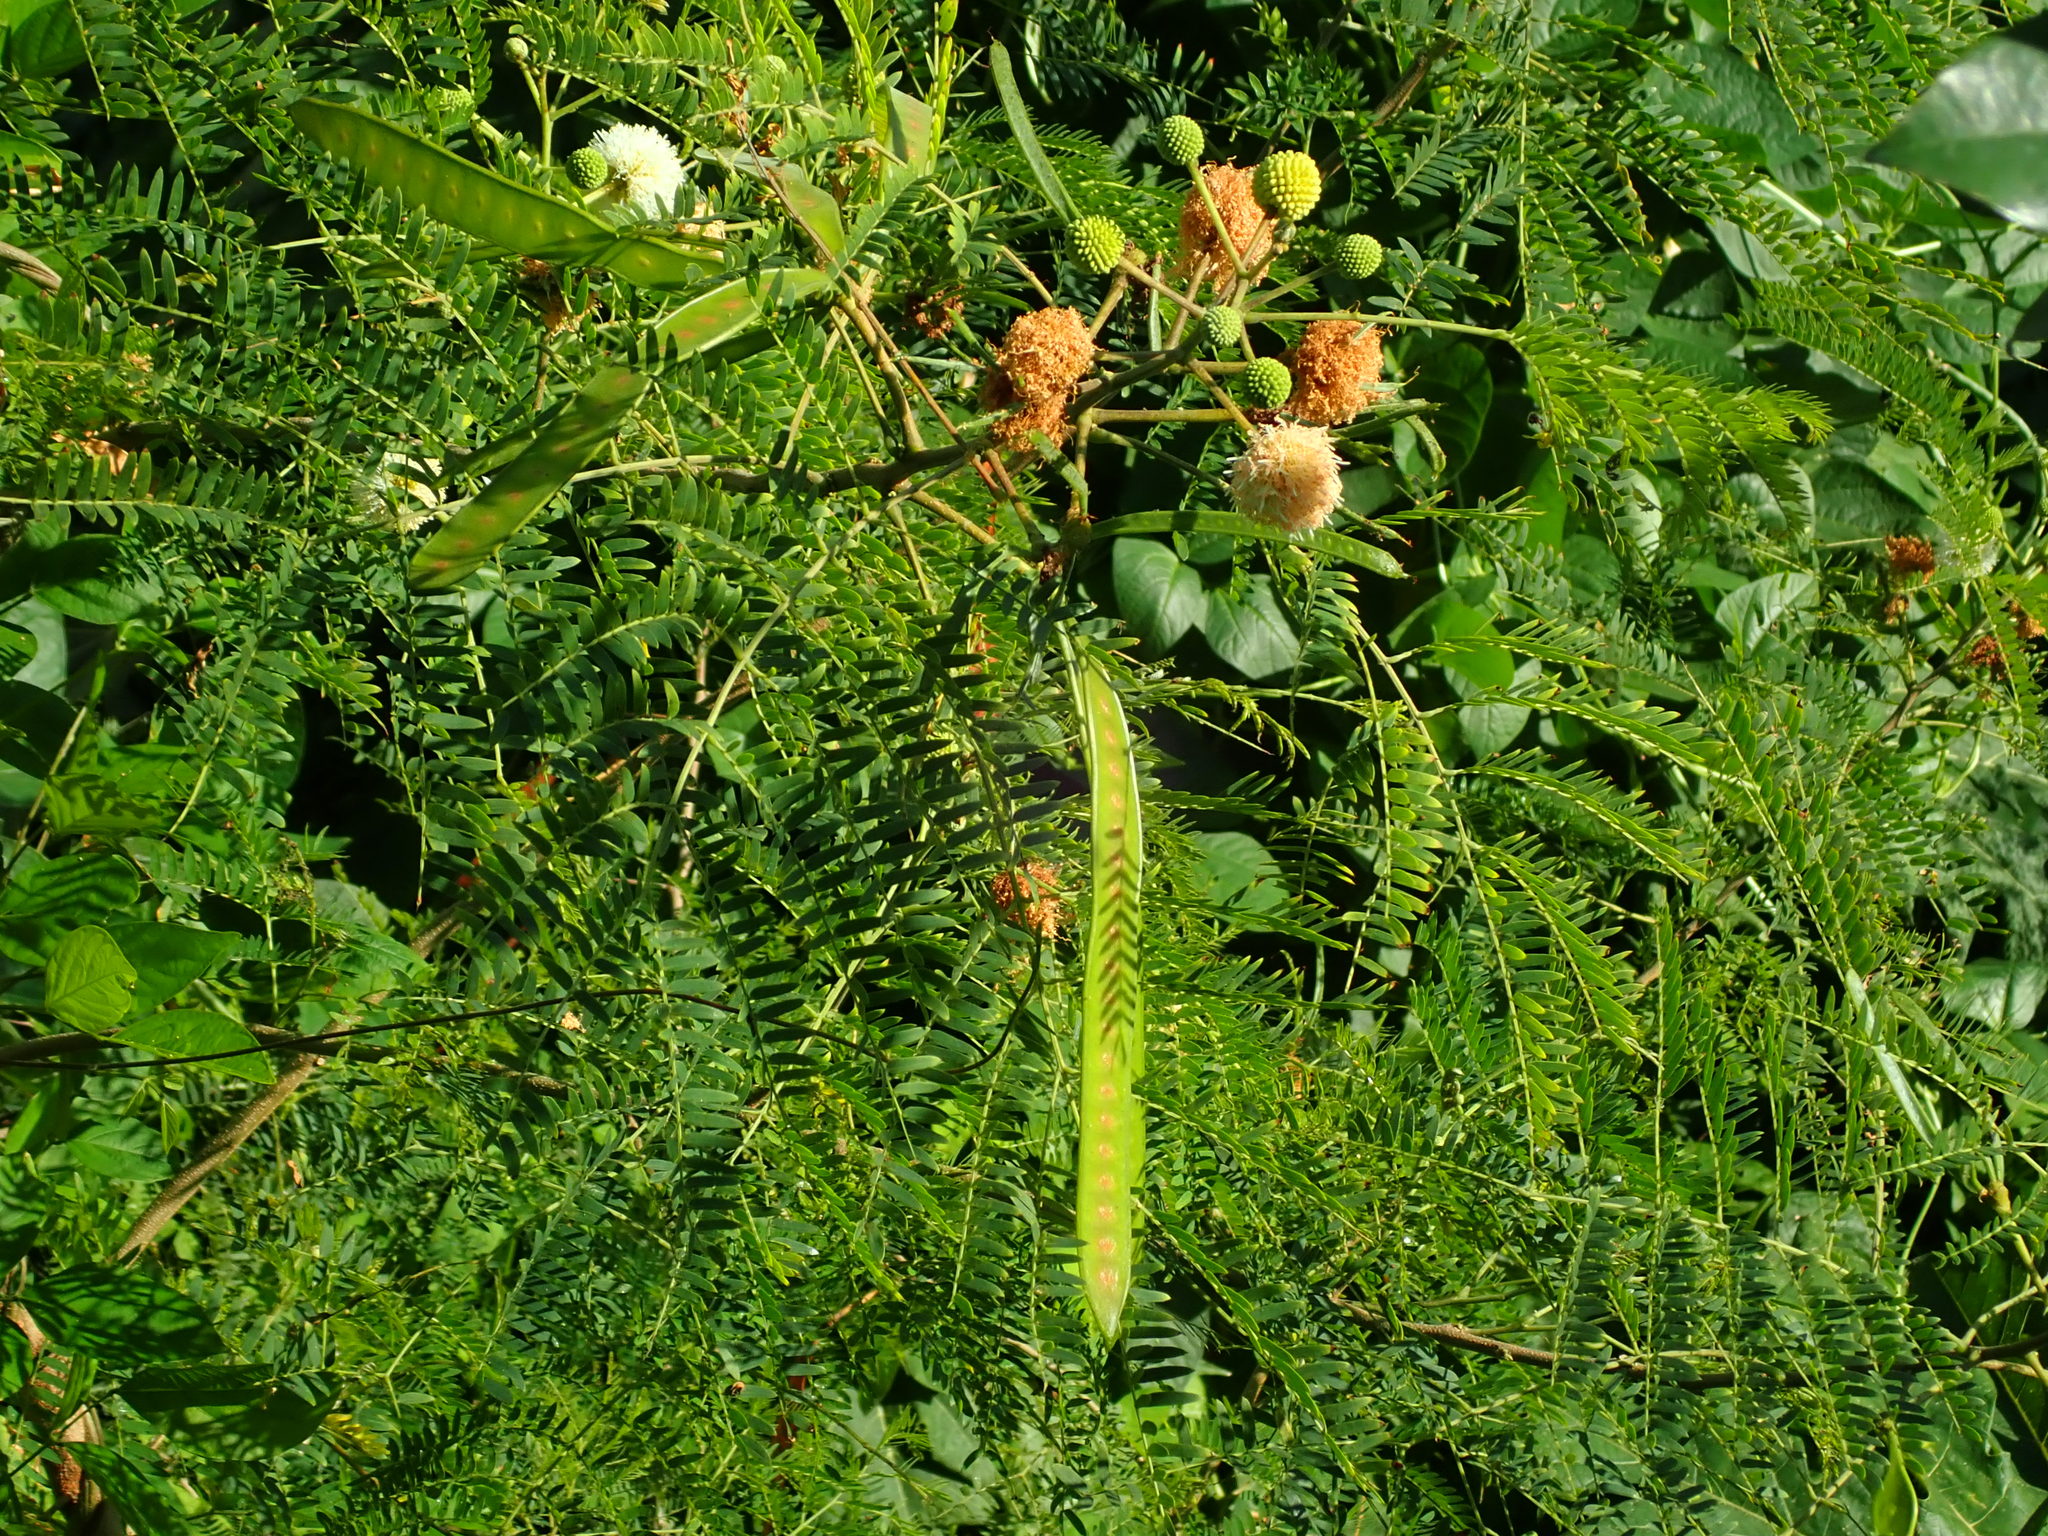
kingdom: Plantae
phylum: Tracheophyta
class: Magnoliopsida
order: Fabales
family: Fabaceae
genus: Leucaena
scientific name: Leucaena leucocephala
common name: White leadtree
